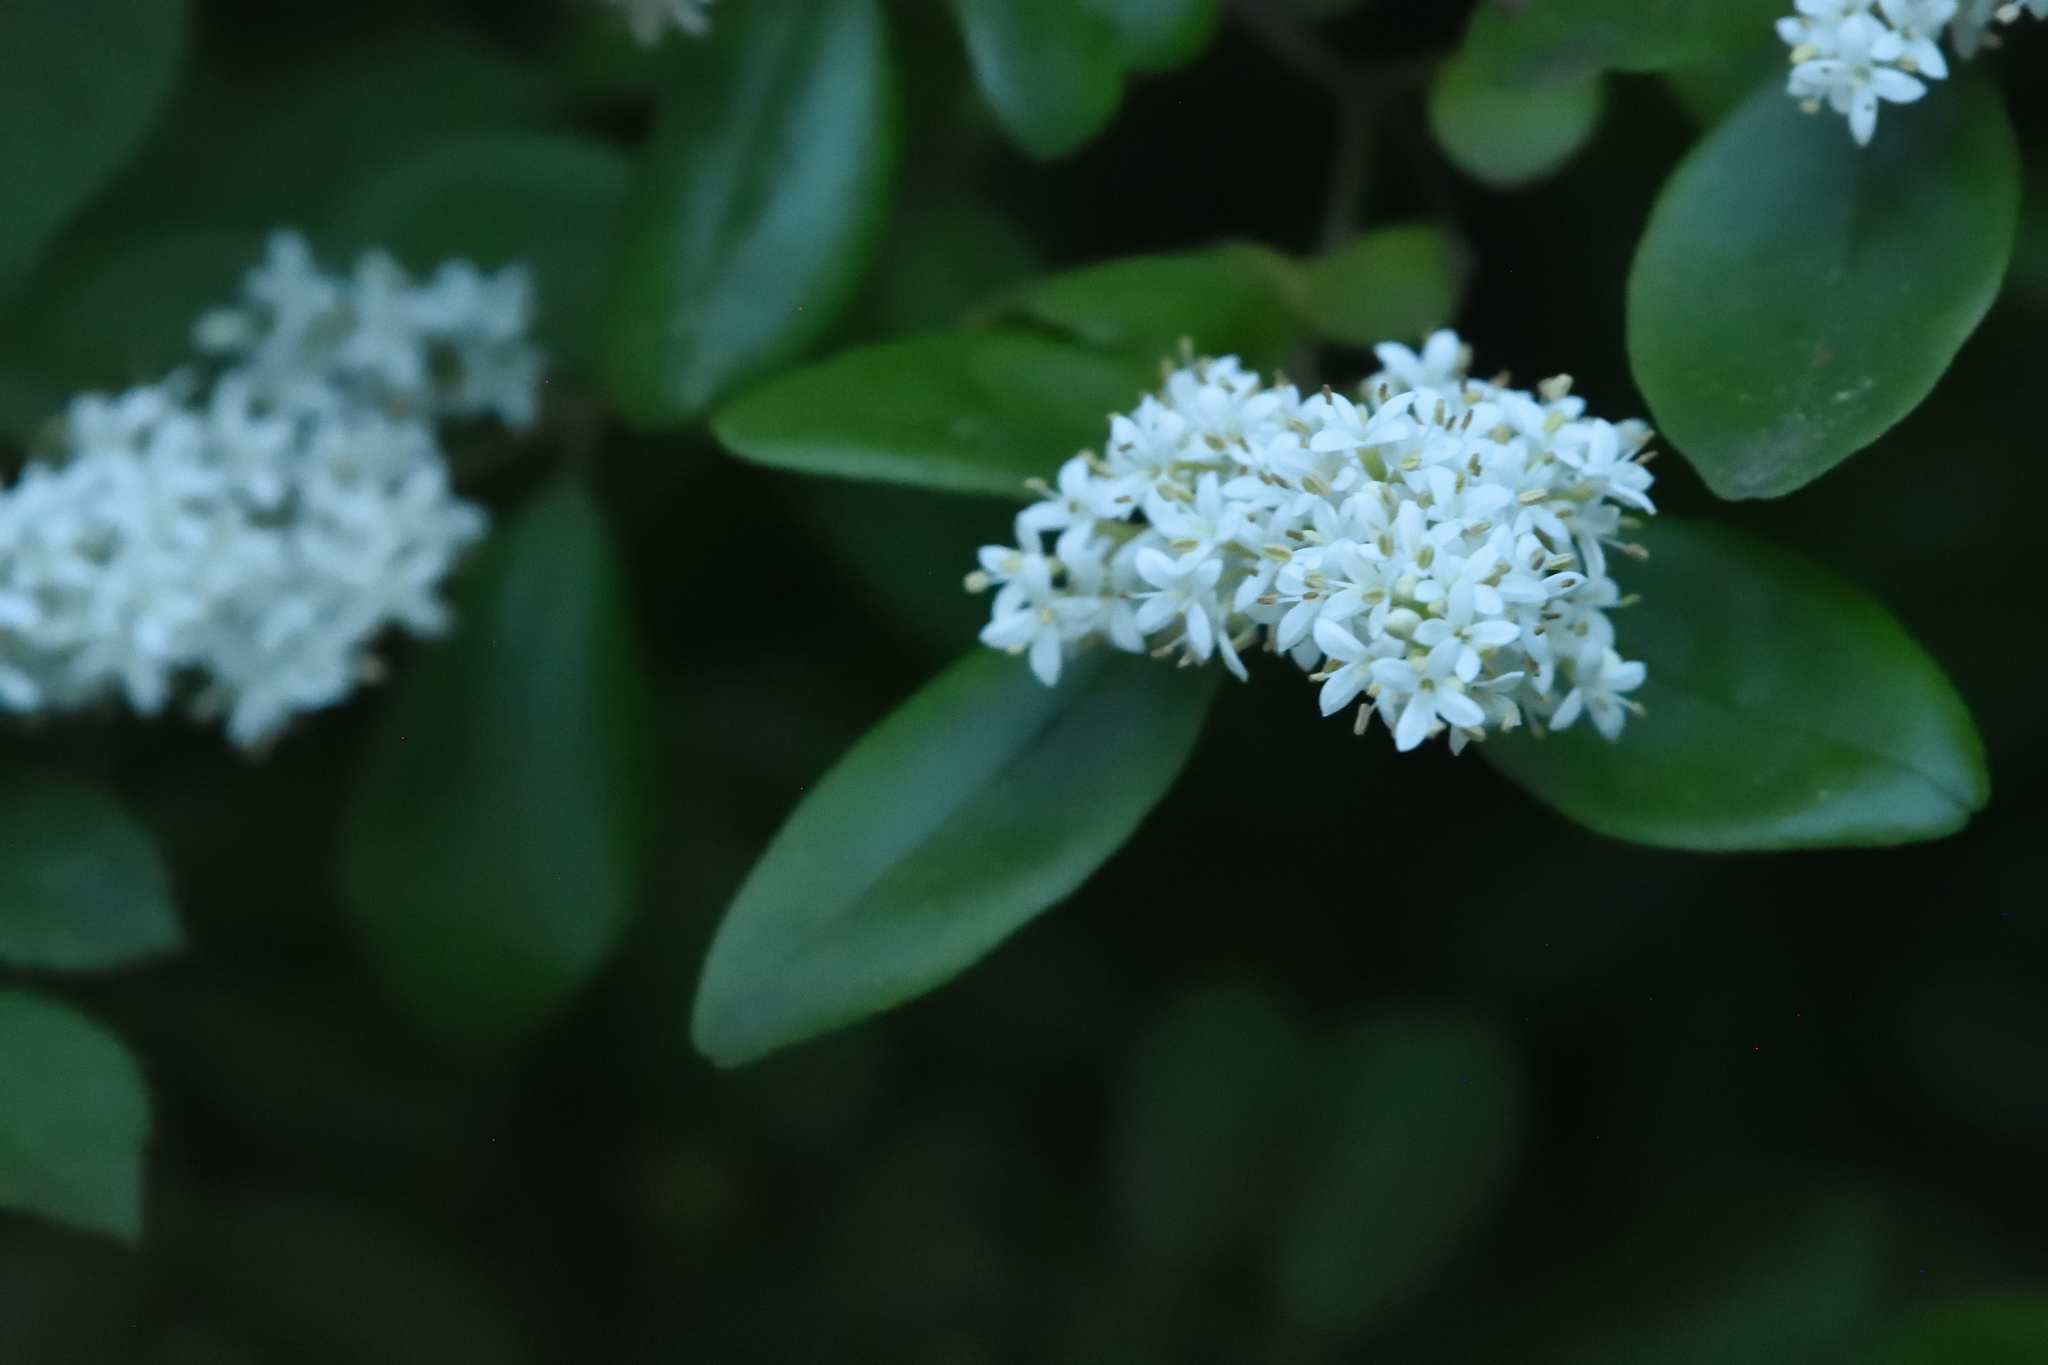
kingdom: Plantae
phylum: Tracheophyta
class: Magnoliopsida
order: Lamiales
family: Oleaceae
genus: Ligustrum
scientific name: Ligustrum sinense
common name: Chinese privet
